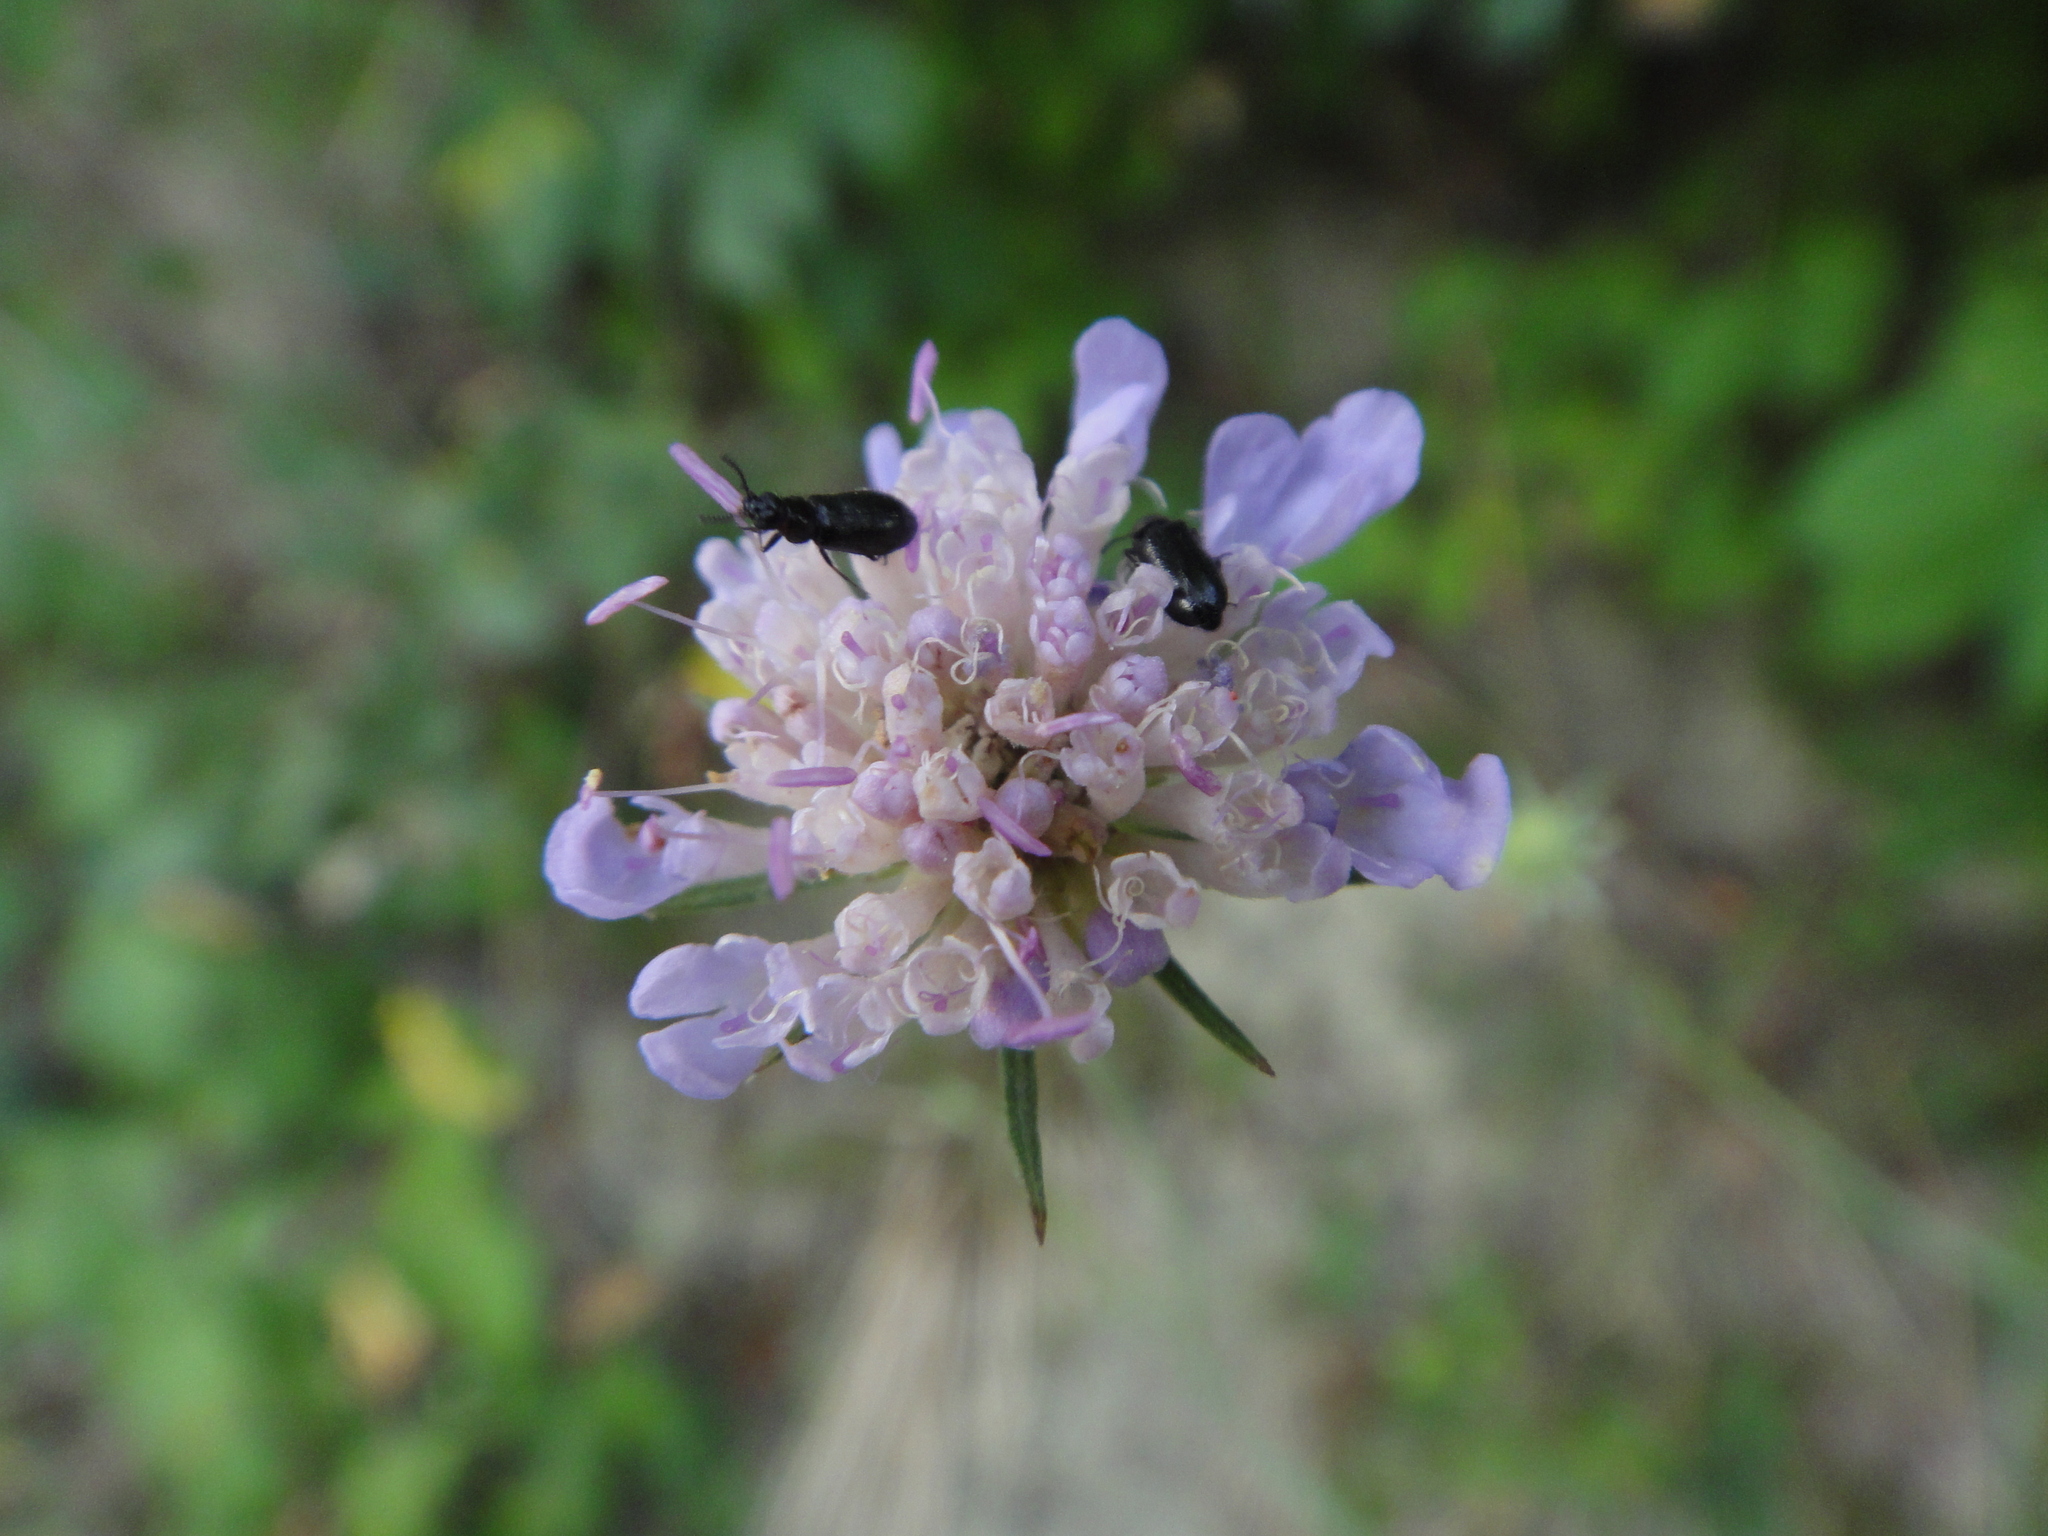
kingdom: Plantae
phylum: Tracheophyta
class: Magnoliopsida
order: Dipsacales
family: Caprifoliaceae
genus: Scabiosa
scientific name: Scabiosa triandra
